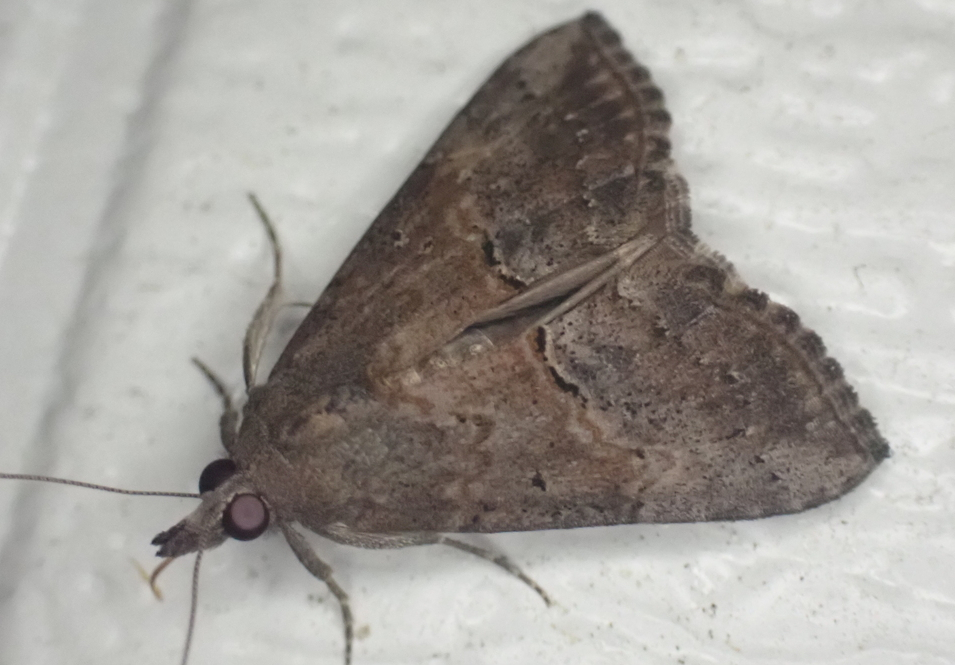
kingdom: Animalia
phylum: Arthropoda
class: Insecta
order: Lepidoptera
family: Erebidae
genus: Hypena
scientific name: Hypena scabra
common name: Green cloverworm
